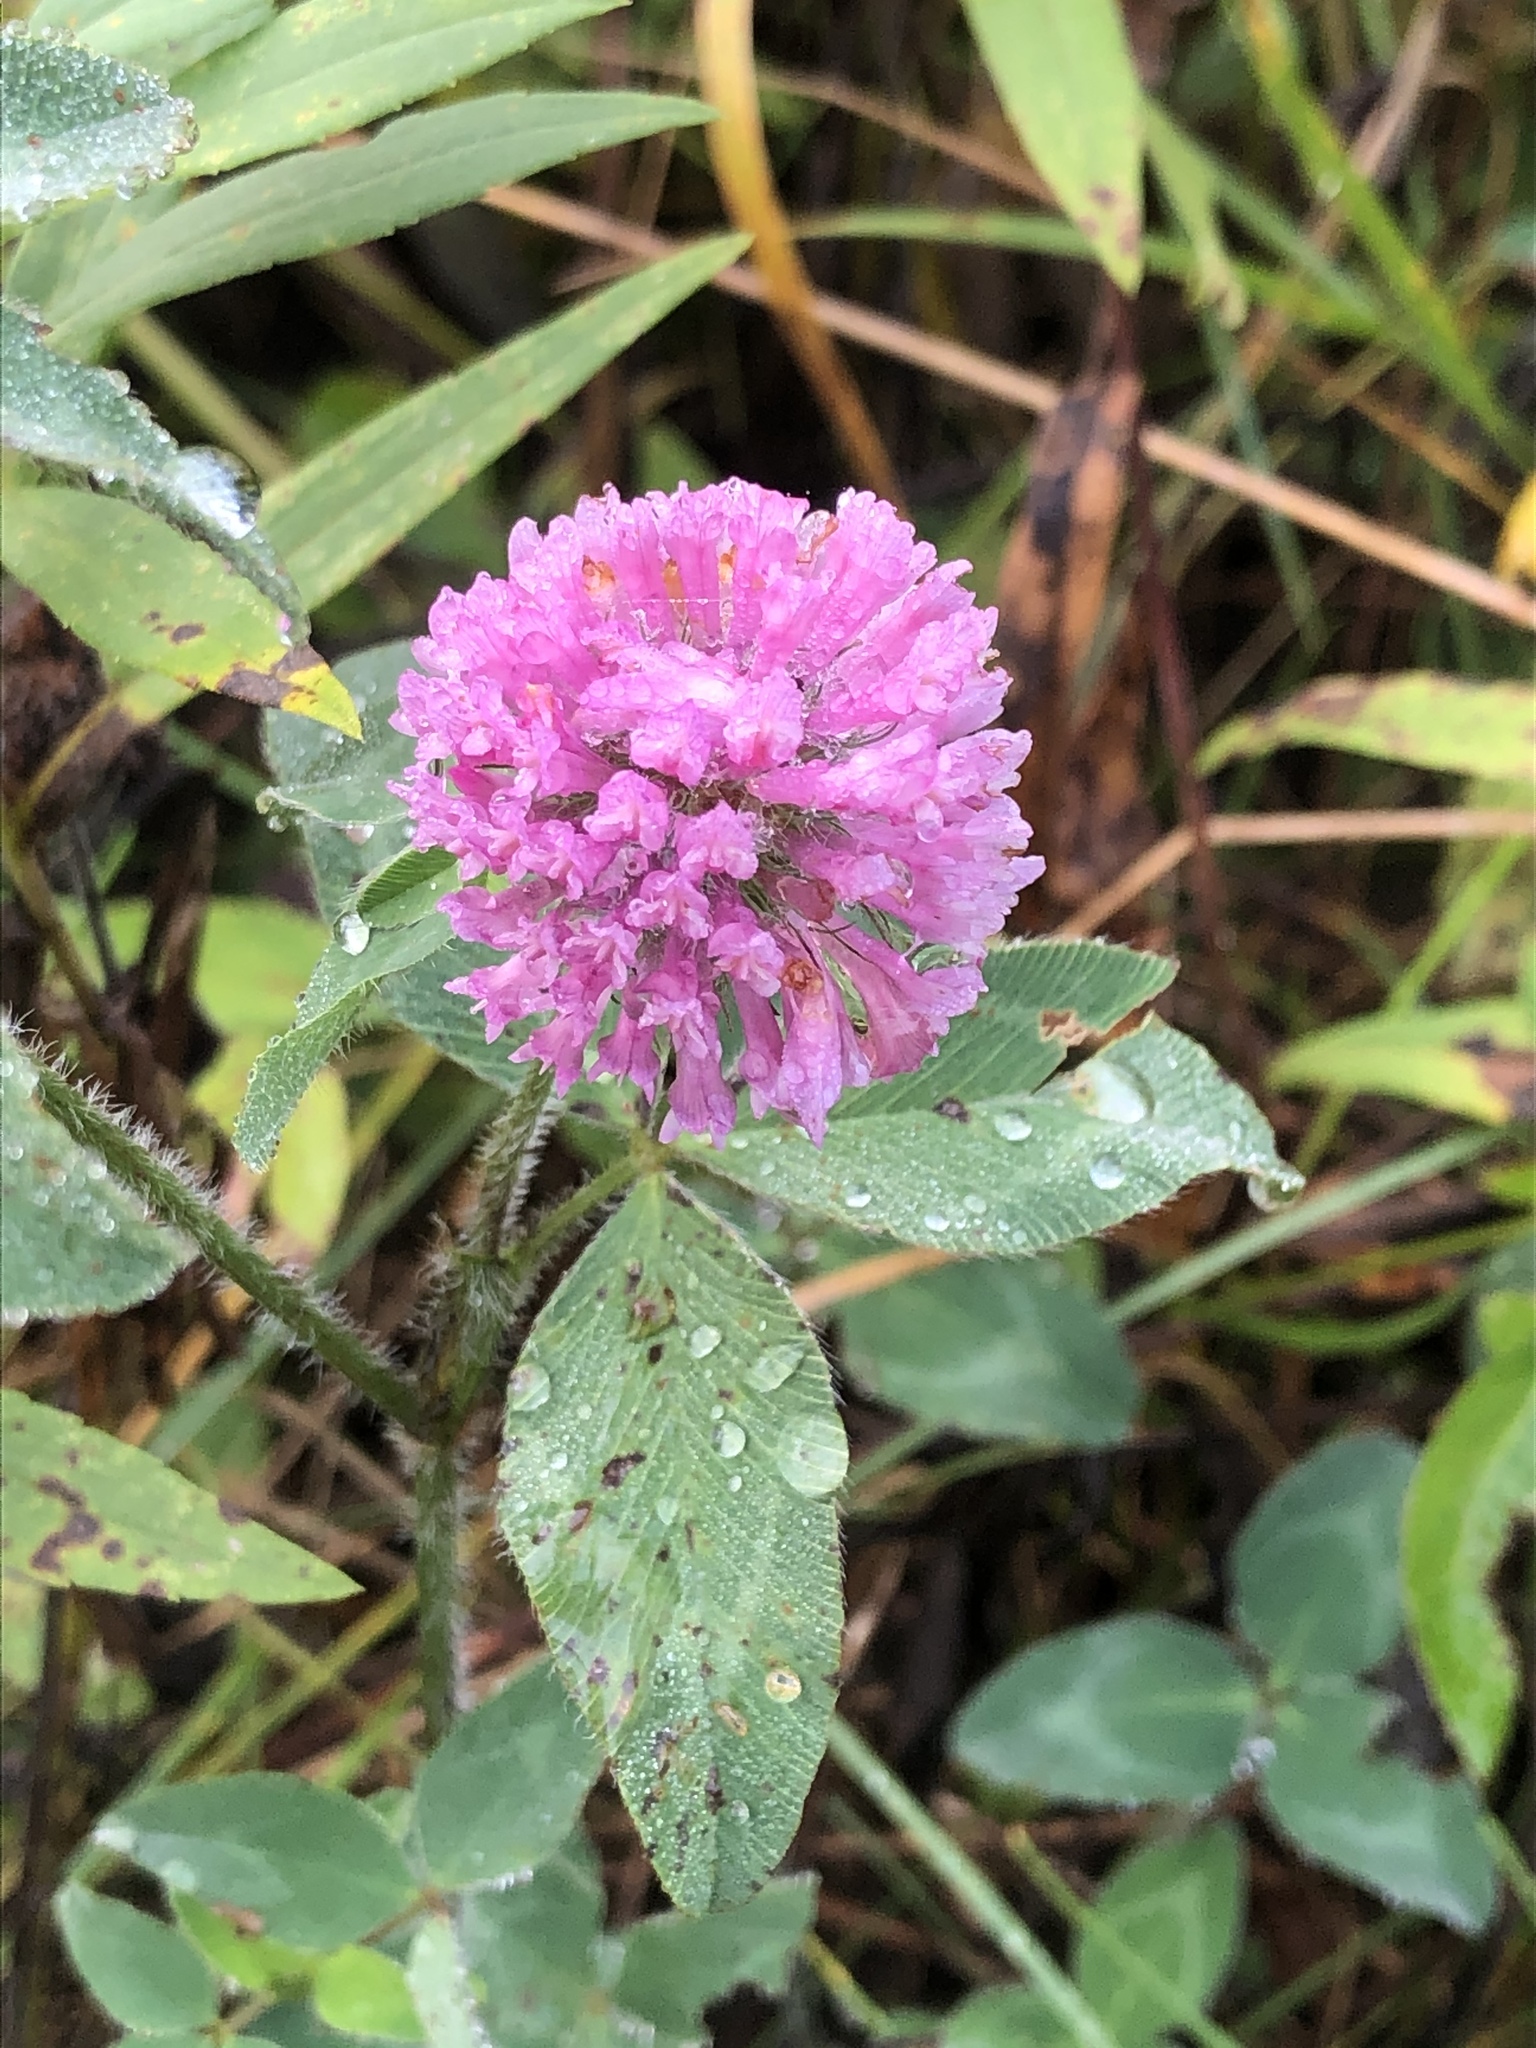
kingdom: Plantae
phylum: Tracheophyta
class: Magnoliopsida
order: Fabales
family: Fabaceae
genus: Trifolium
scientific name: Trifolium pratense
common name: Red clover
